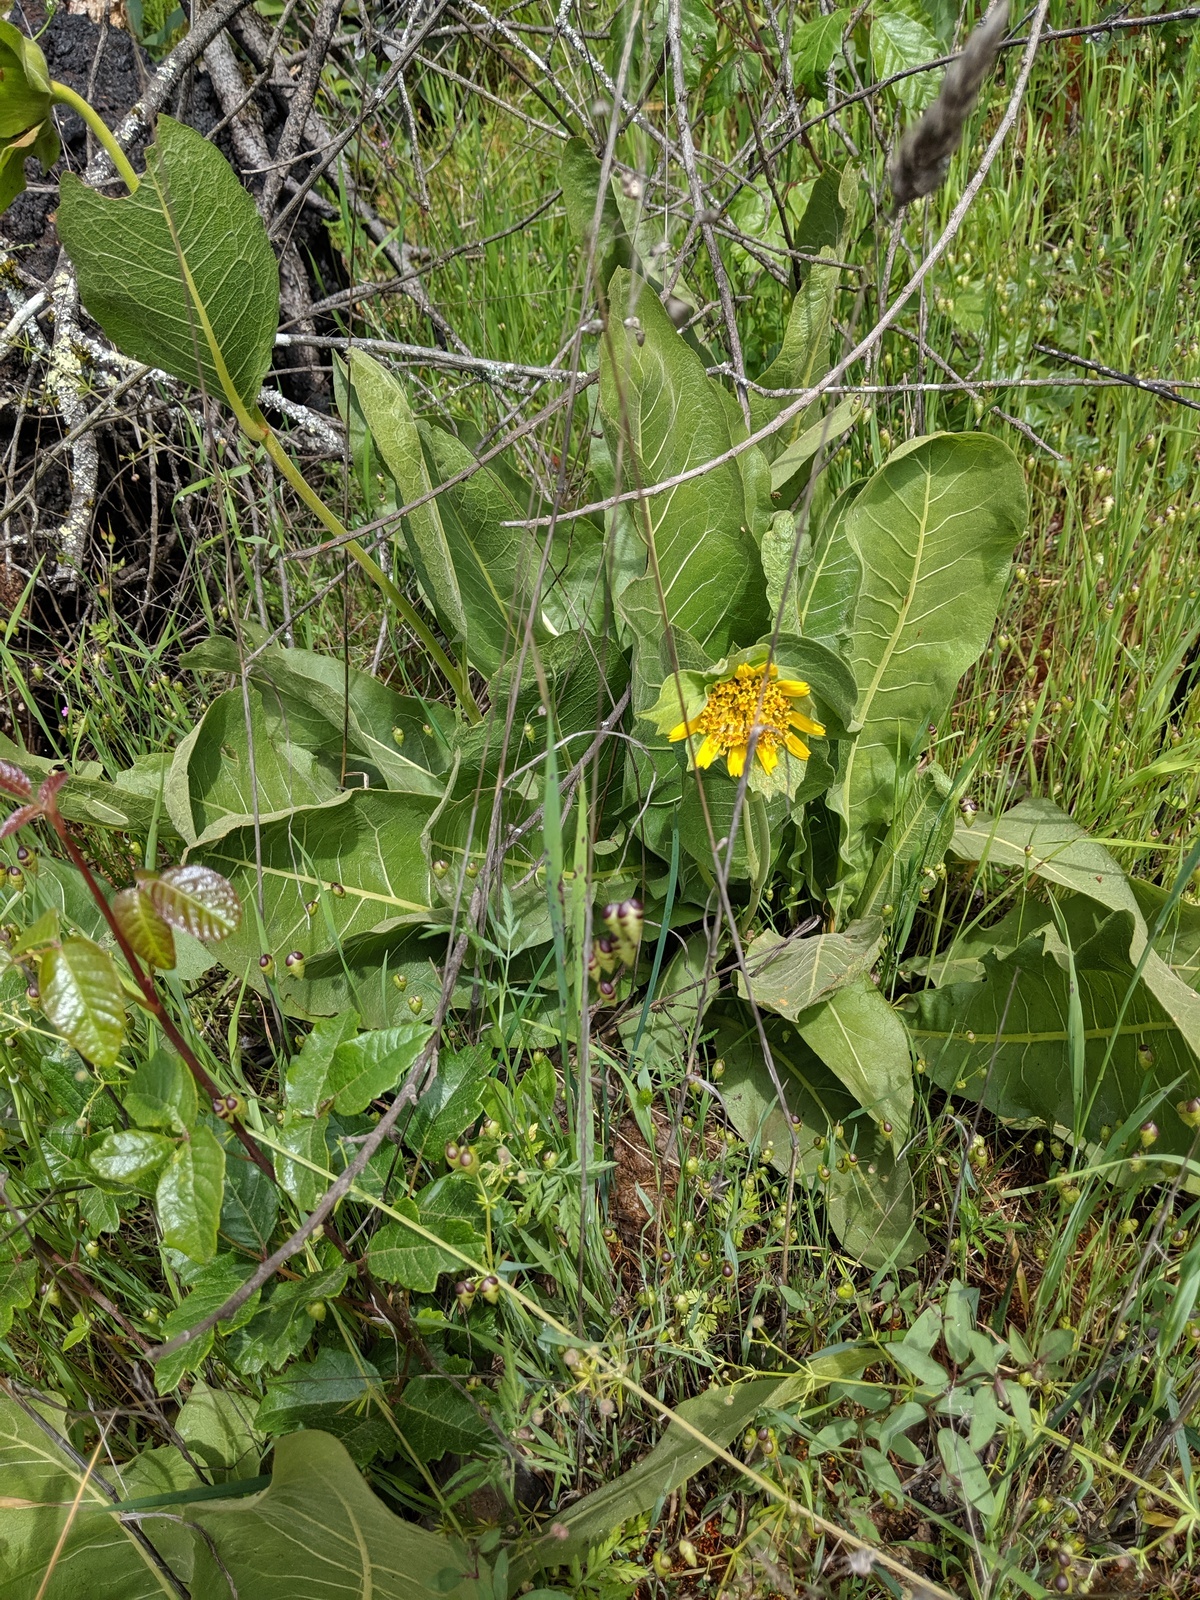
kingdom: Plantae
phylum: Tracheophyta
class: Magnoliopsida
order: Asterales
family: Asteraceae
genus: Wyethia
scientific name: Wyethia glabra
